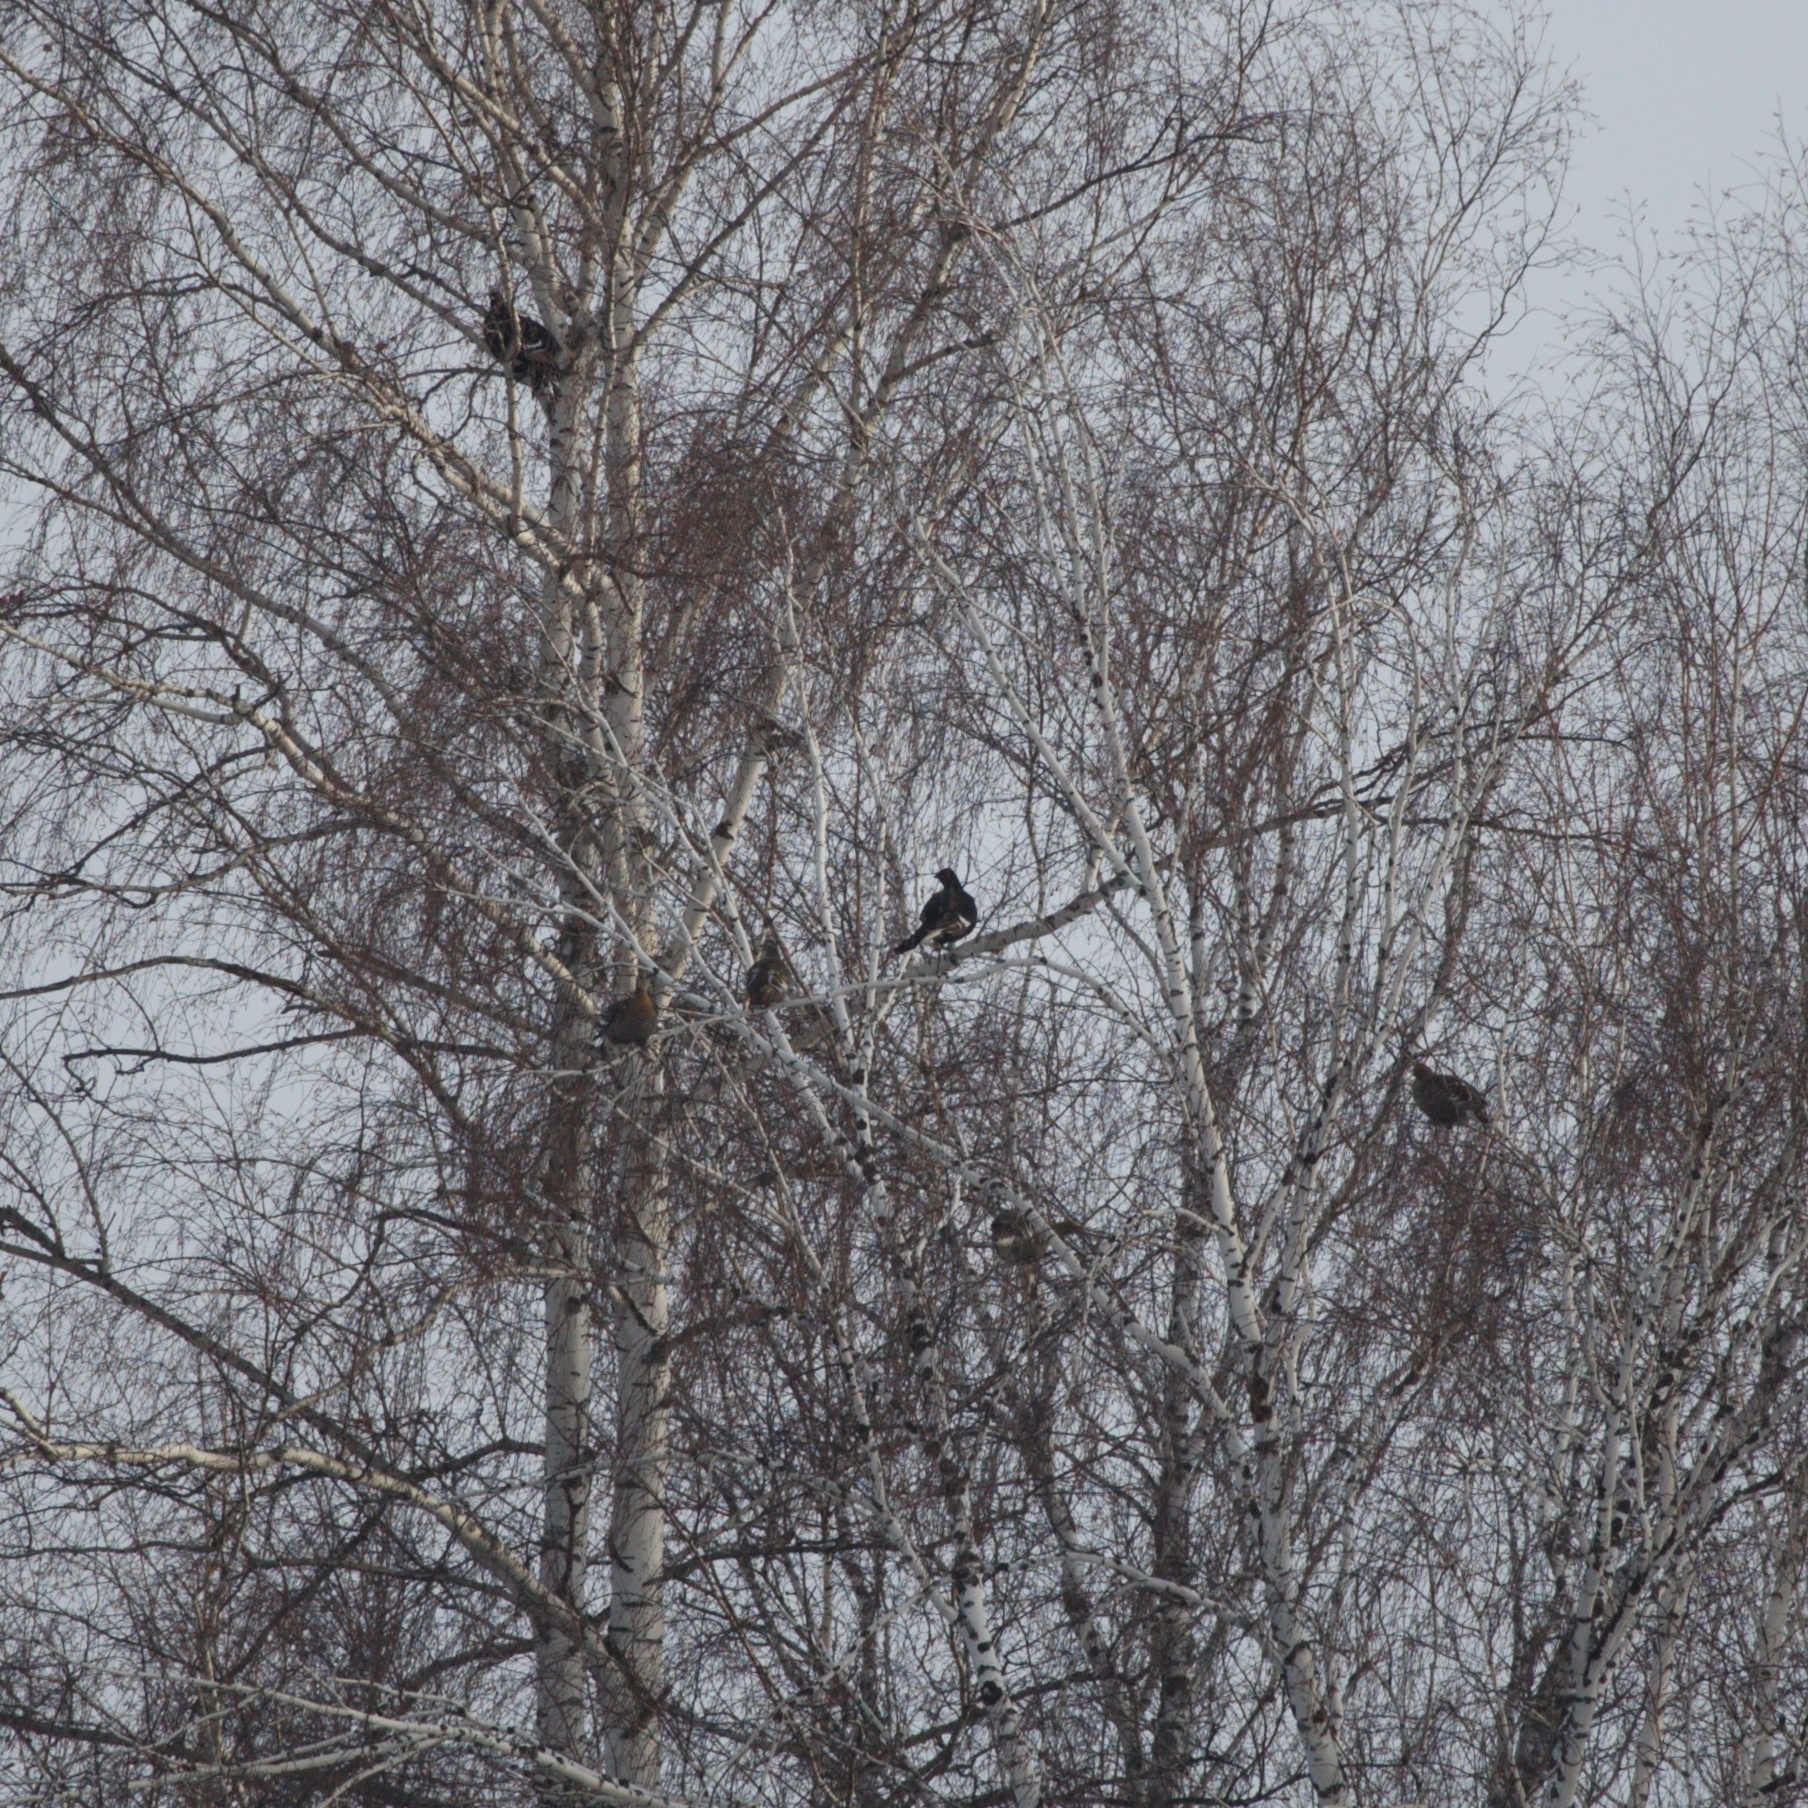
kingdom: Animalia
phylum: Chordata
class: Aves
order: Galliformes
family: Phasianidae
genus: Lyrurus
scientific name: Lyrurus tetrix
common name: Black grouse
